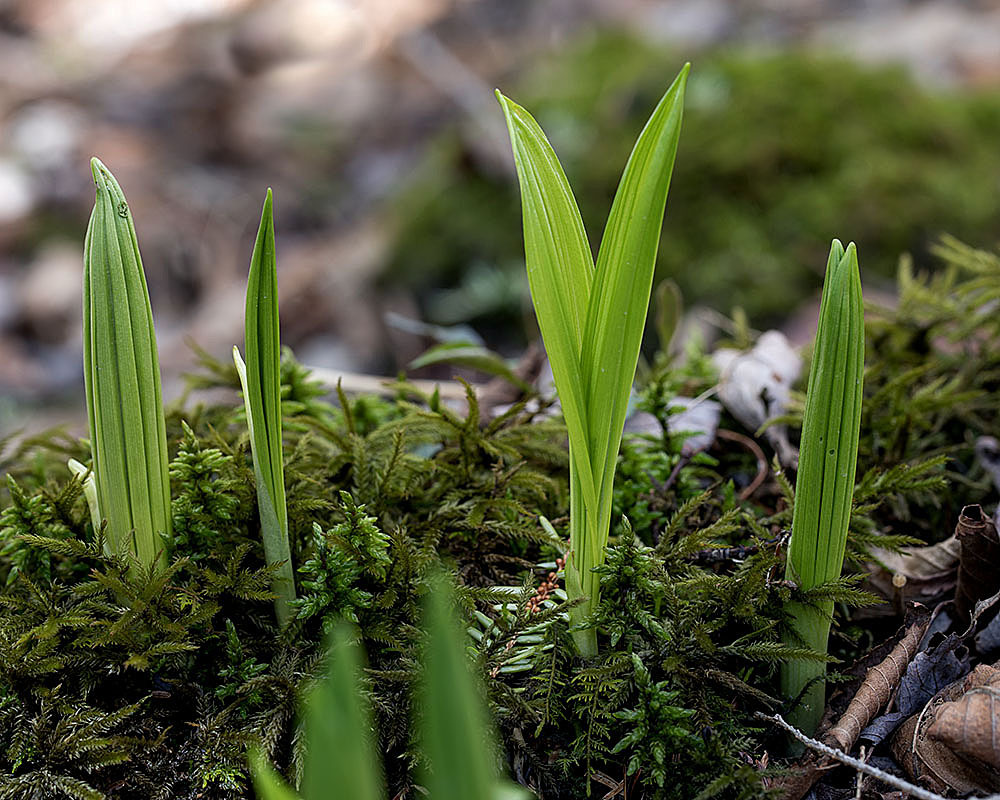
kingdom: Plantae
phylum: Tracheophyta
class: Liliopsida
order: Liliales
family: Melanthiaceae
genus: Veratrum
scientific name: Veratrum viride
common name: American false hellebore
